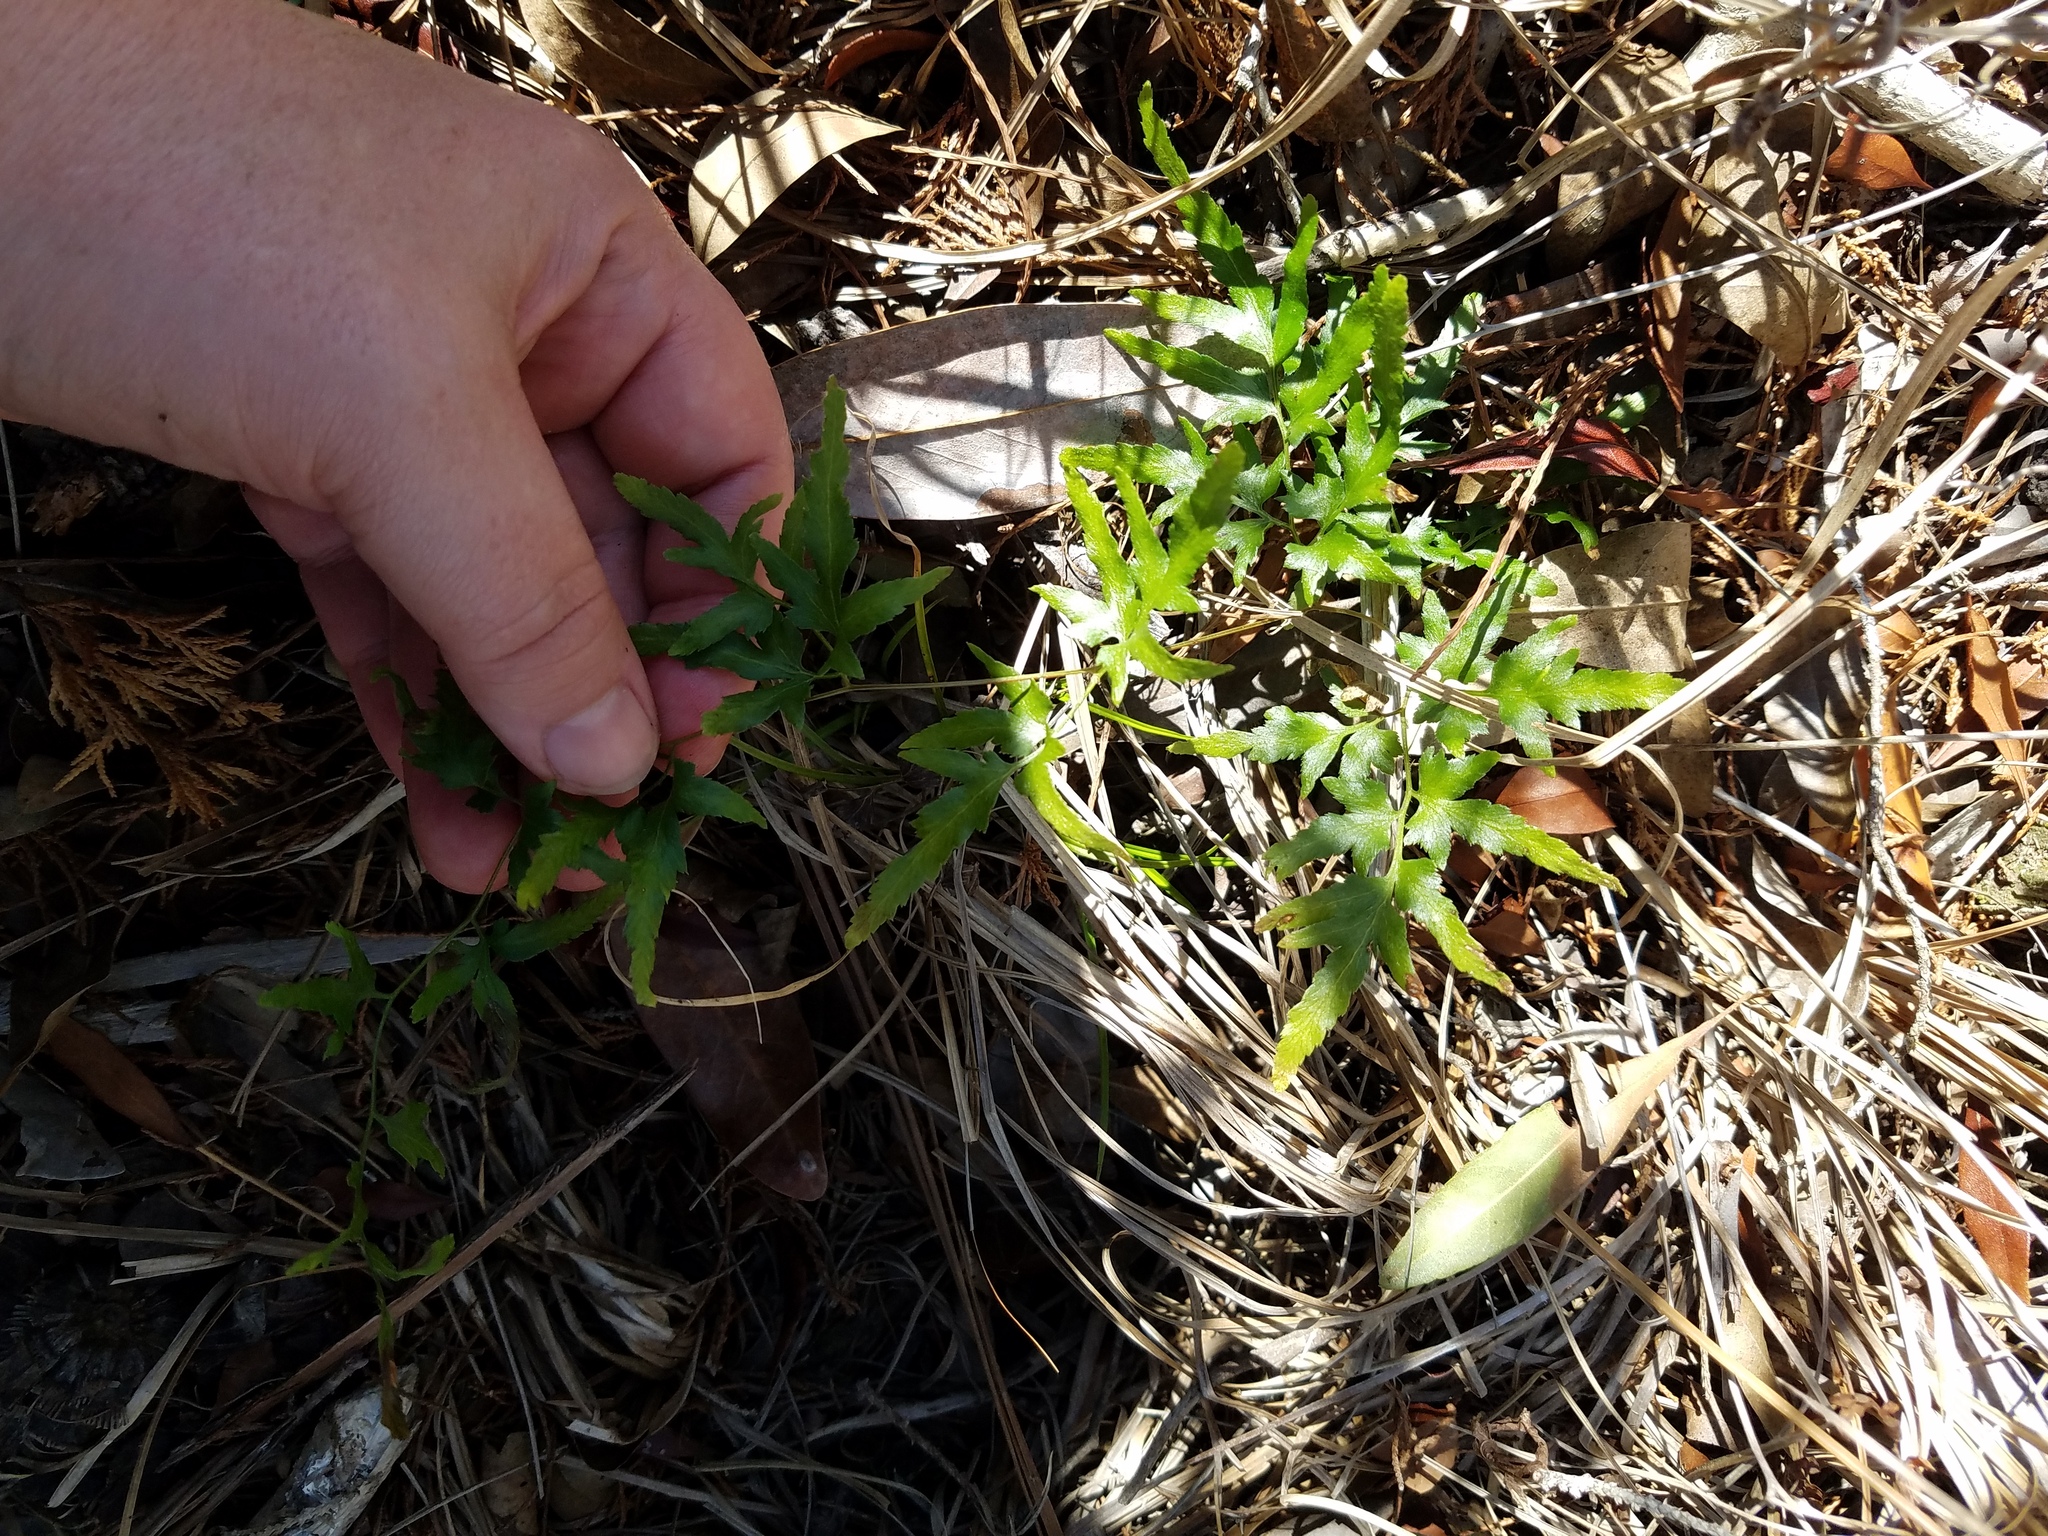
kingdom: Plantae
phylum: Tracheophyta
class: Polypodiopsida
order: Schizaeales
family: Lygodiaceae
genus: Lygodium
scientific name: Lygodium japonicum
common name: Japanese climbing fern
